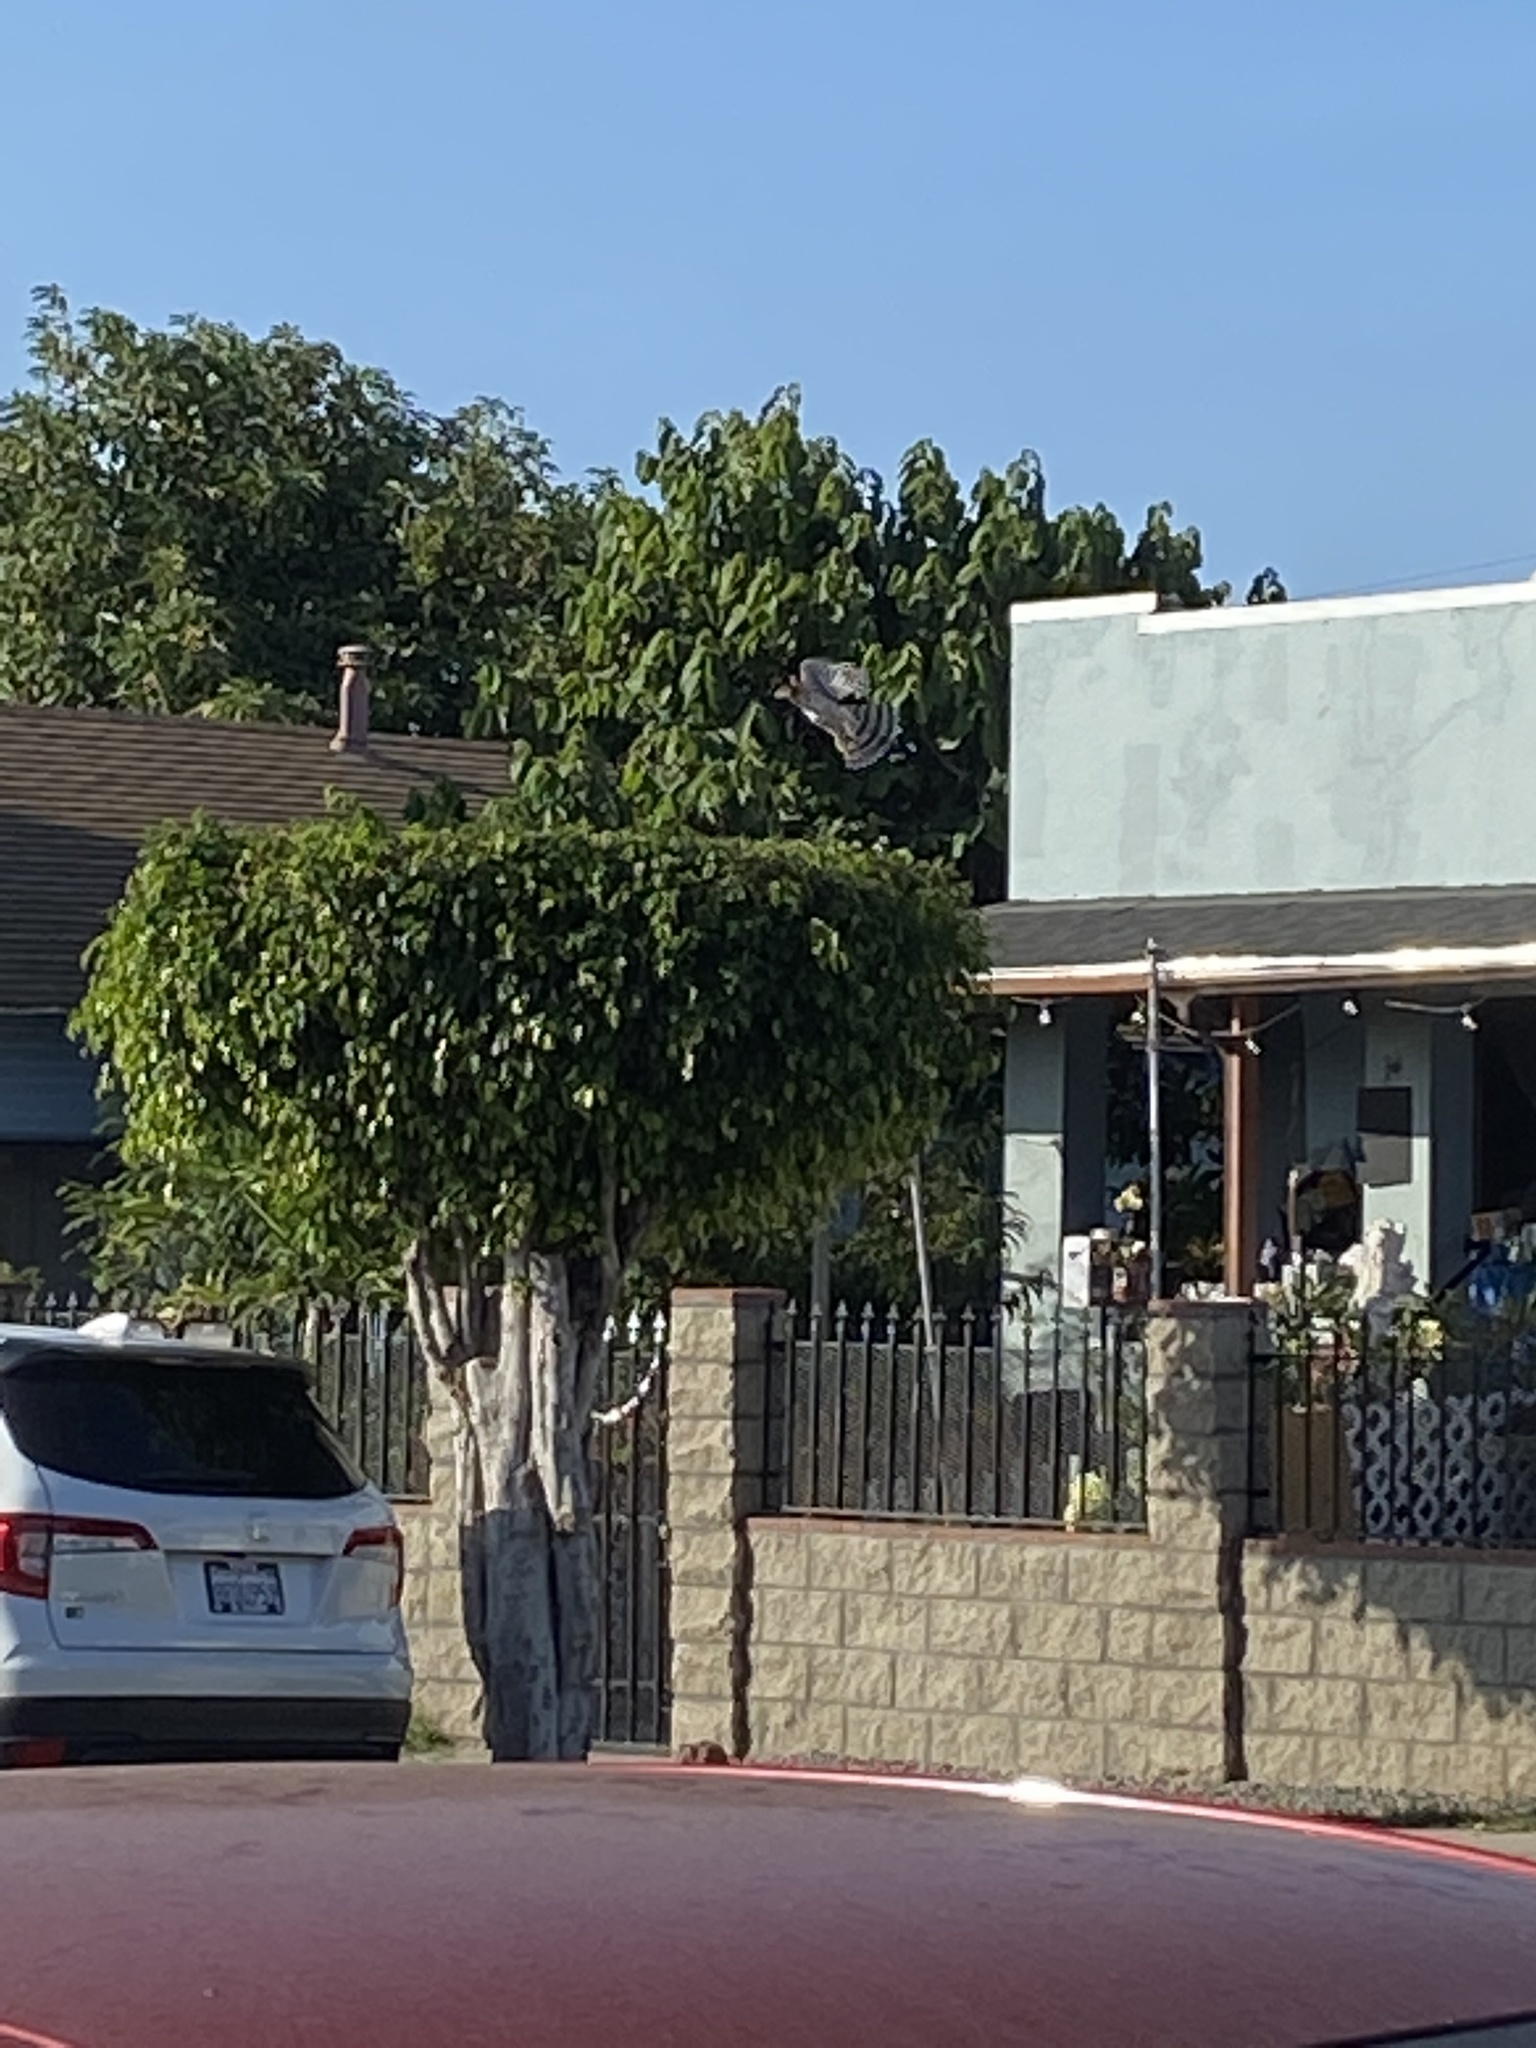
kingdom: Animalia
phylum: Chordata
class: Aves
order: Accipitriformes
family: Accipitridae
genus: Accipiter
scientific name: Accipiter cooperii
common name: Cooper's hawk
